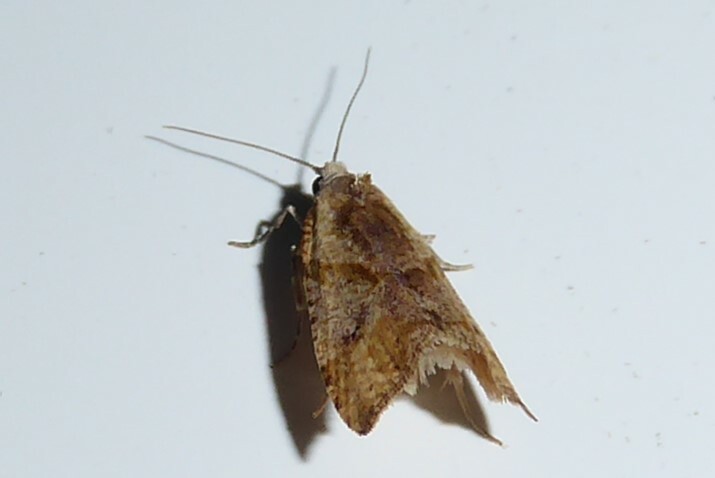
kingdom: Animalia
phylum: Arthropoda
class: Insecta
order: Lepidoptera
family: Tortricidae
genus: Pyrgotis
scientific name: Pyrgotis plagiatana
